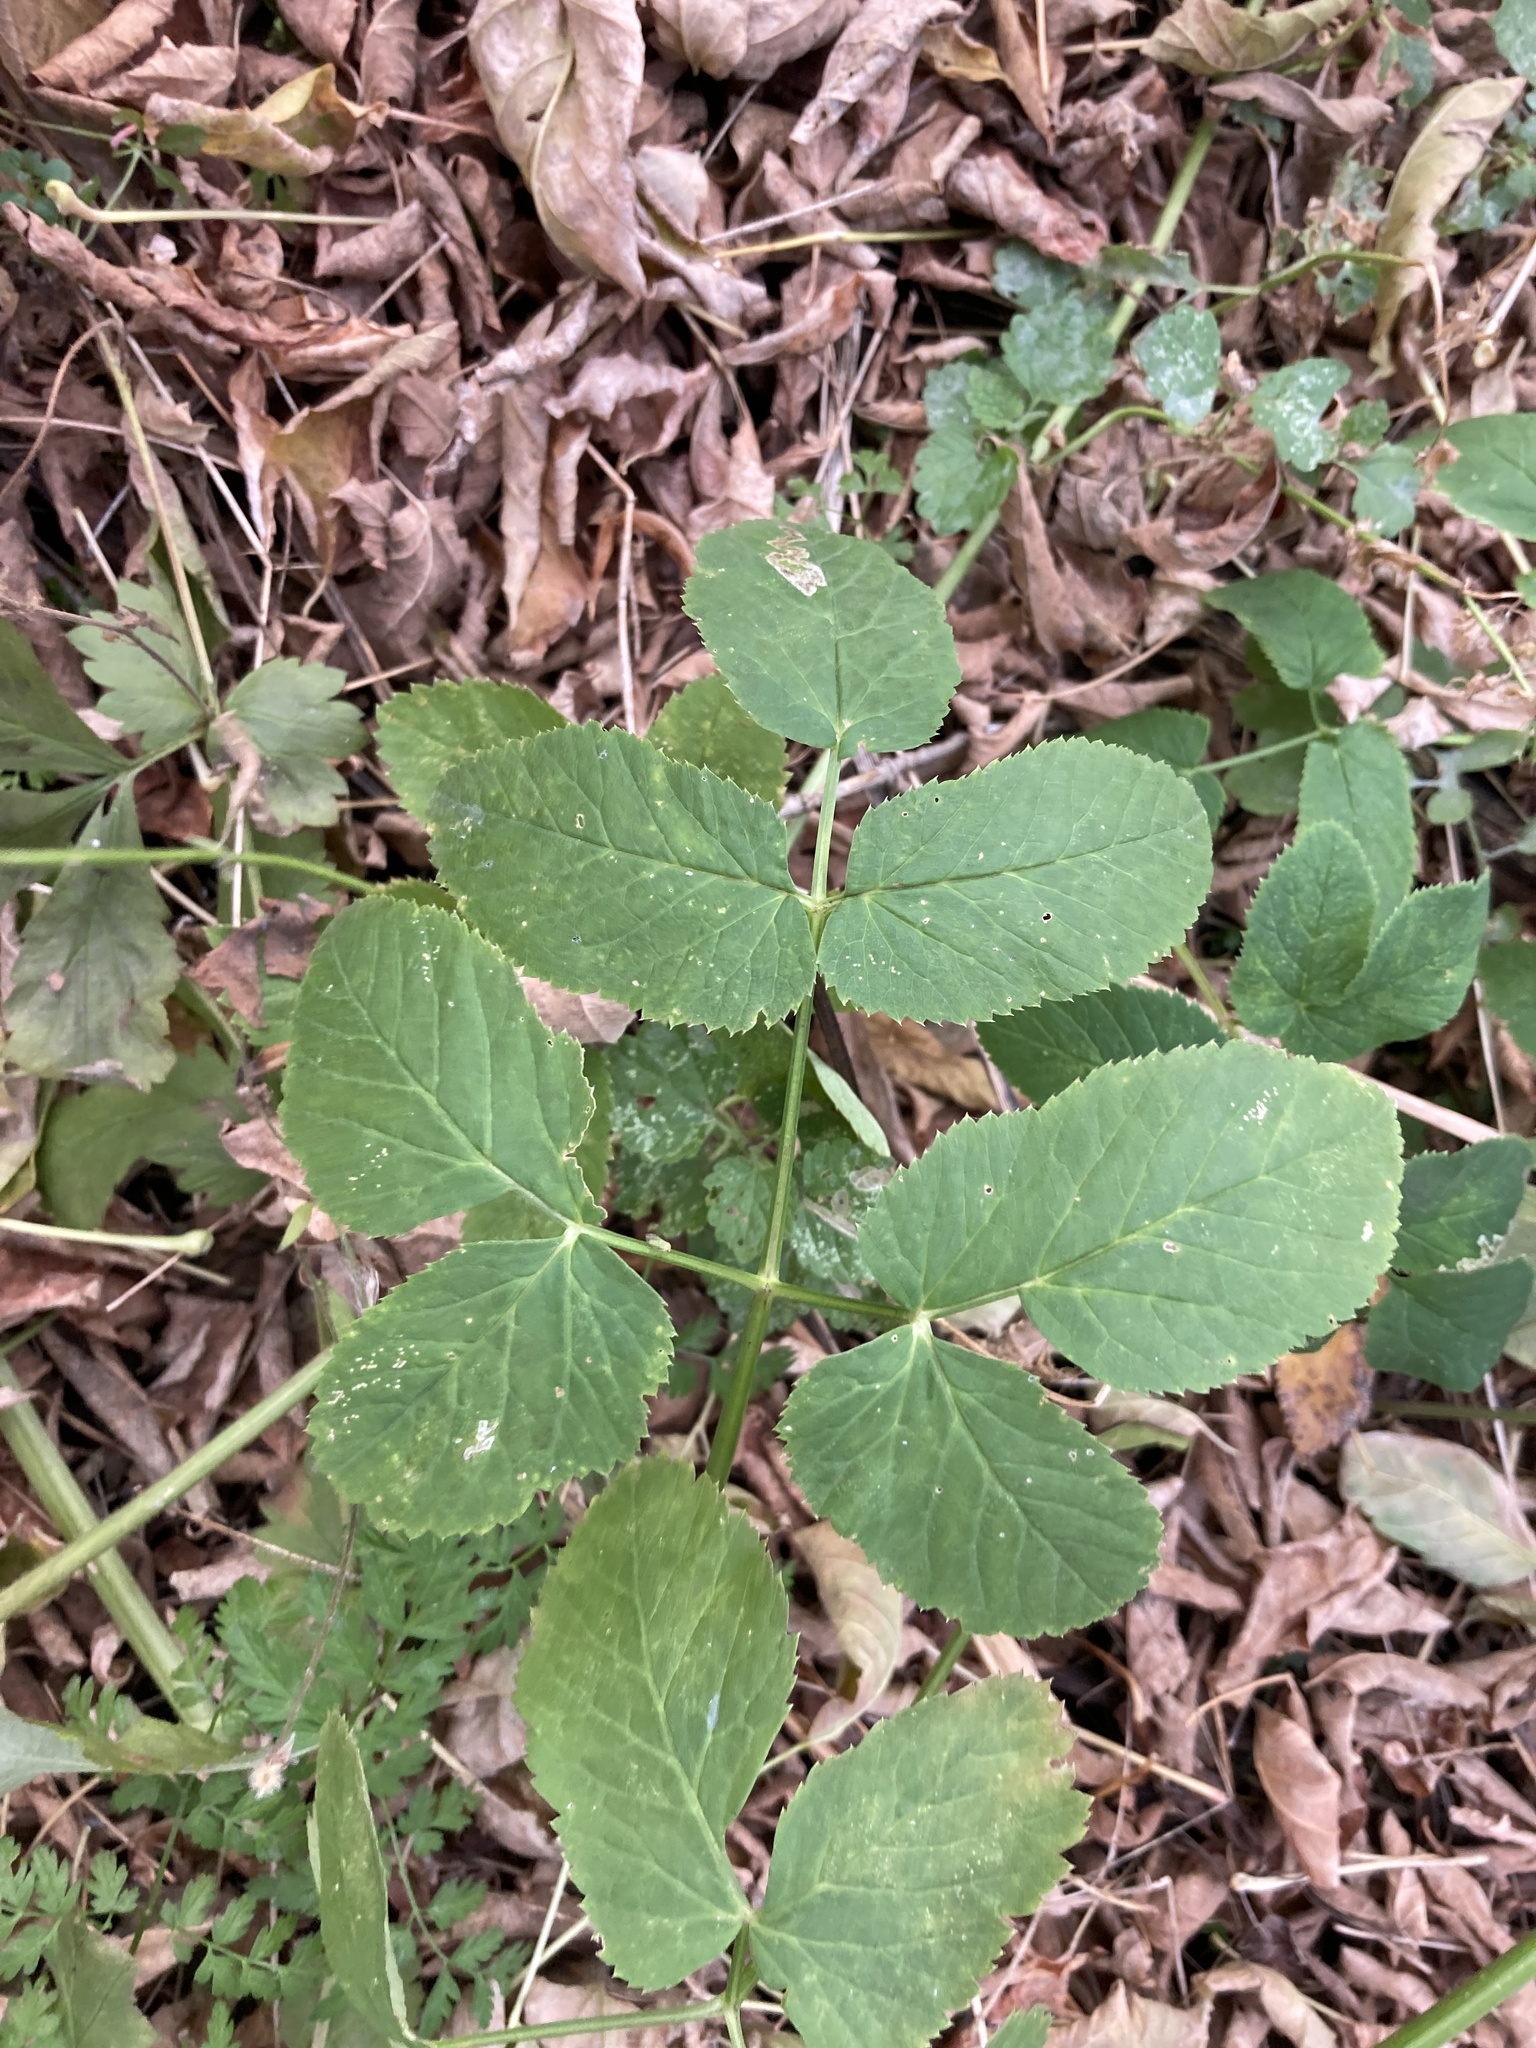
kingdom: Plantae
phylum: Tracheophyta
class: Magnoliopsida
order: Apiales
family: Apiaceae
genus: Aegopodium
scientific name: Aegopodium podagraria
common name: Ground-elder
